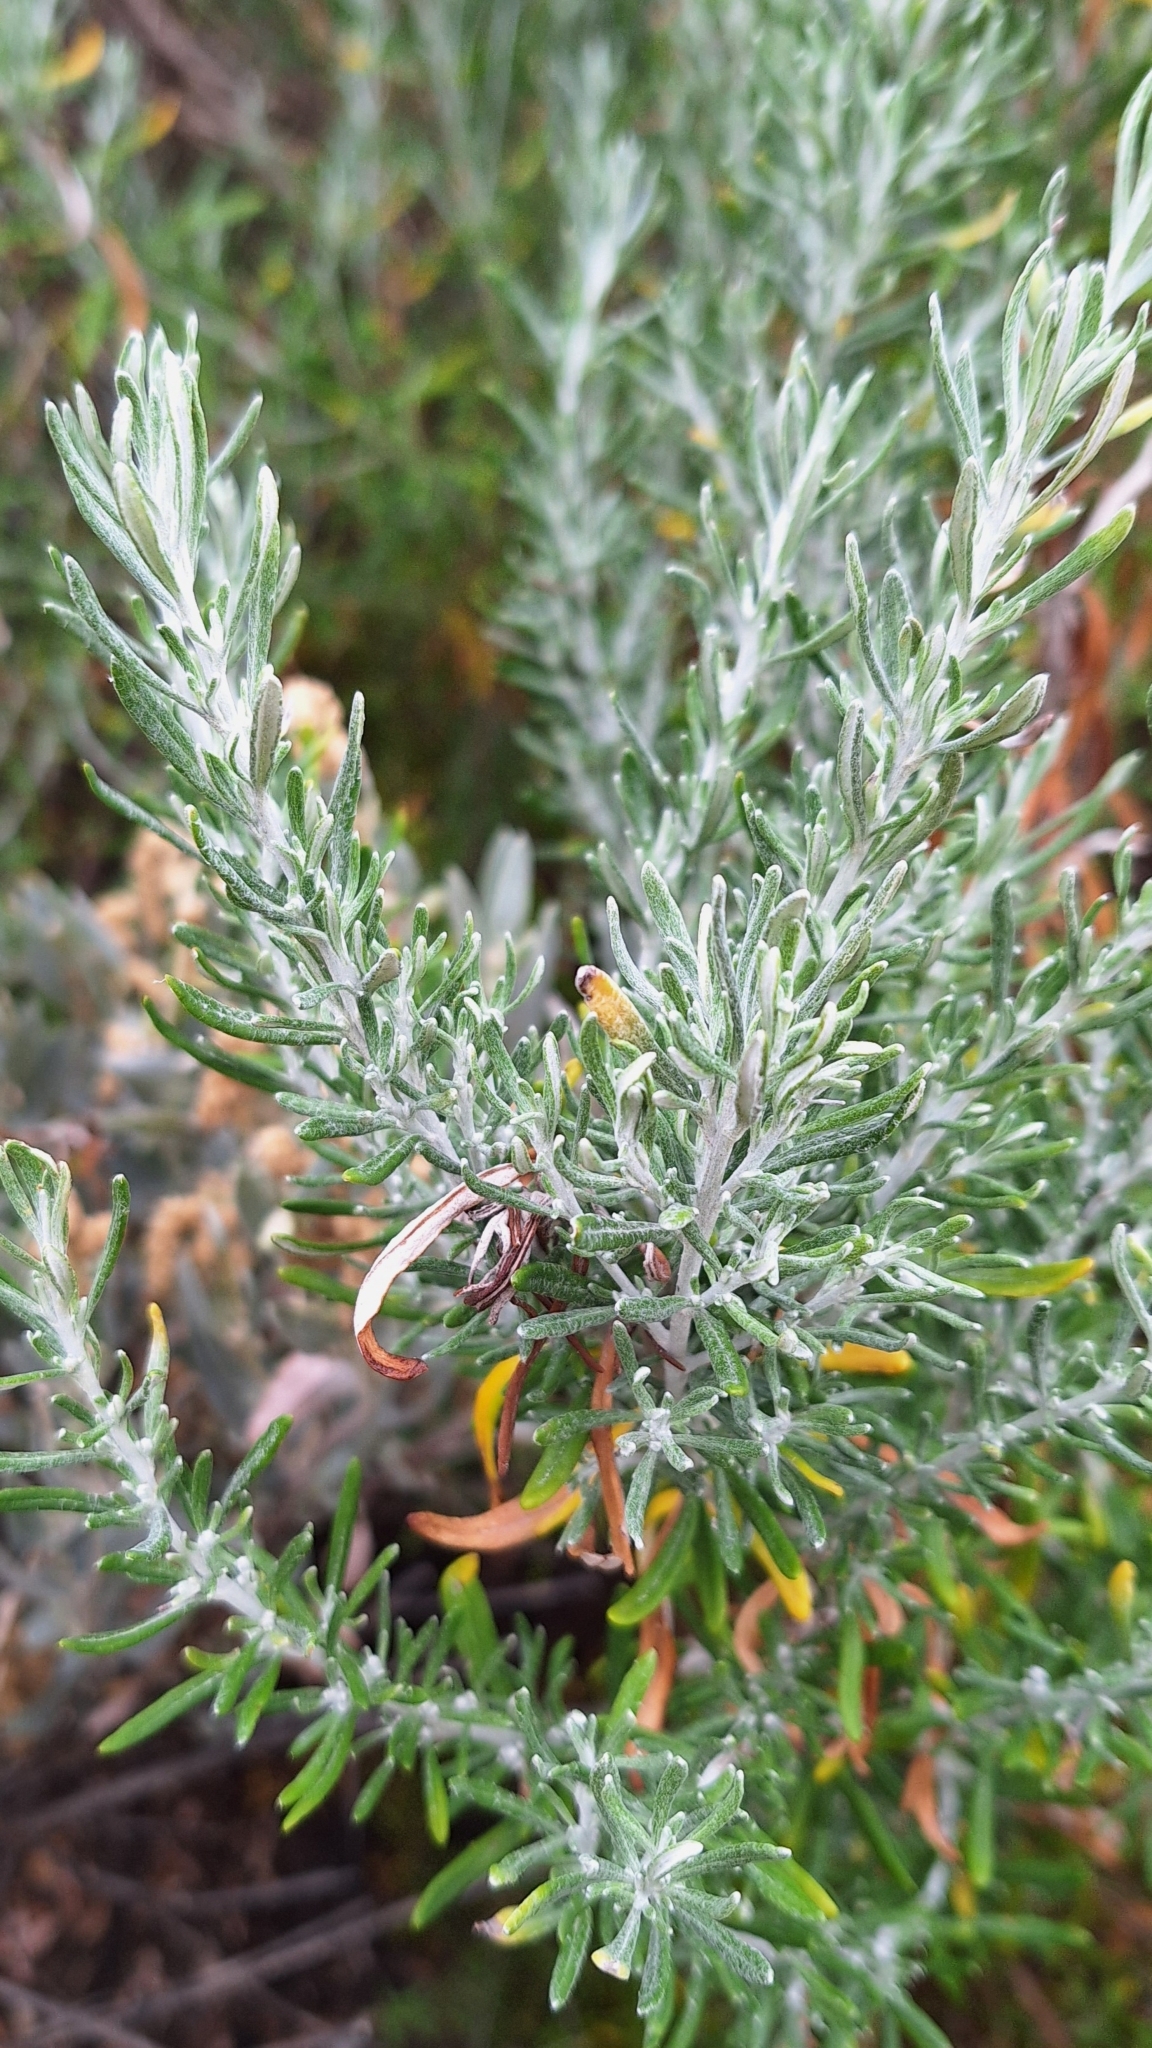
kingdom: Plantae
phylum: Tracheophyta
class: Magnoliopsida
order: Asterales
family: Asteraceae
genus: Olearia
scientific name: Olearia axillaris
